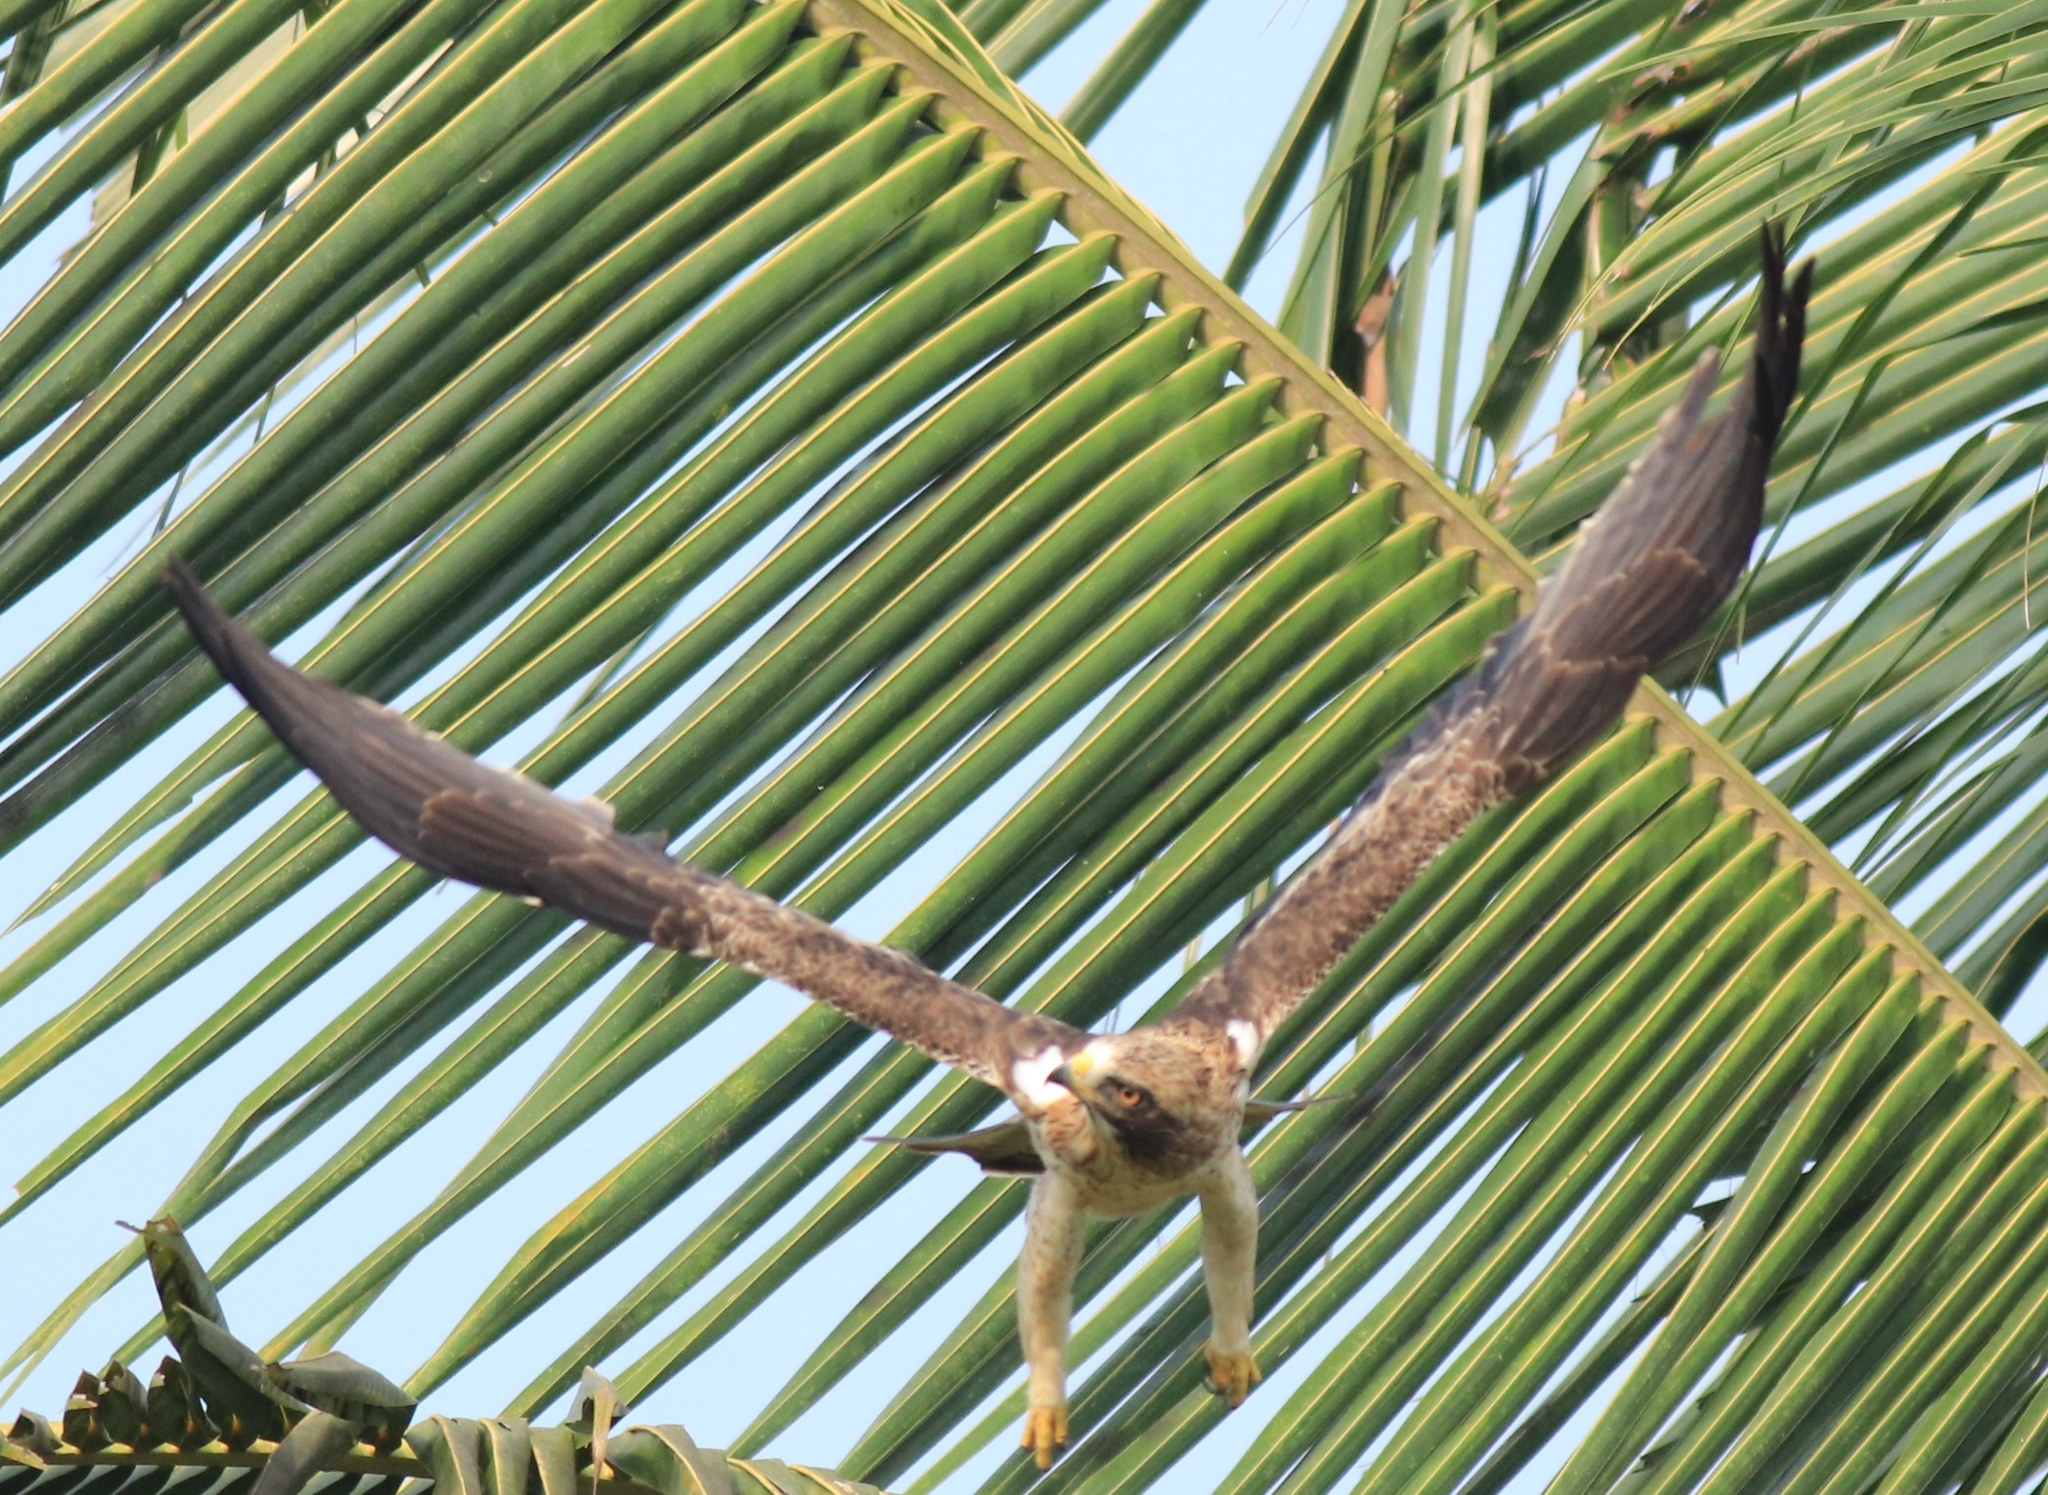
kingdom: Animalia
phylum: Chordata
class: Aves
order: Accipitriformes
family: Accipitridae
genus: Hieraaetus
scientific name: Hieraaetus pennatus
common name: Booted eagle
